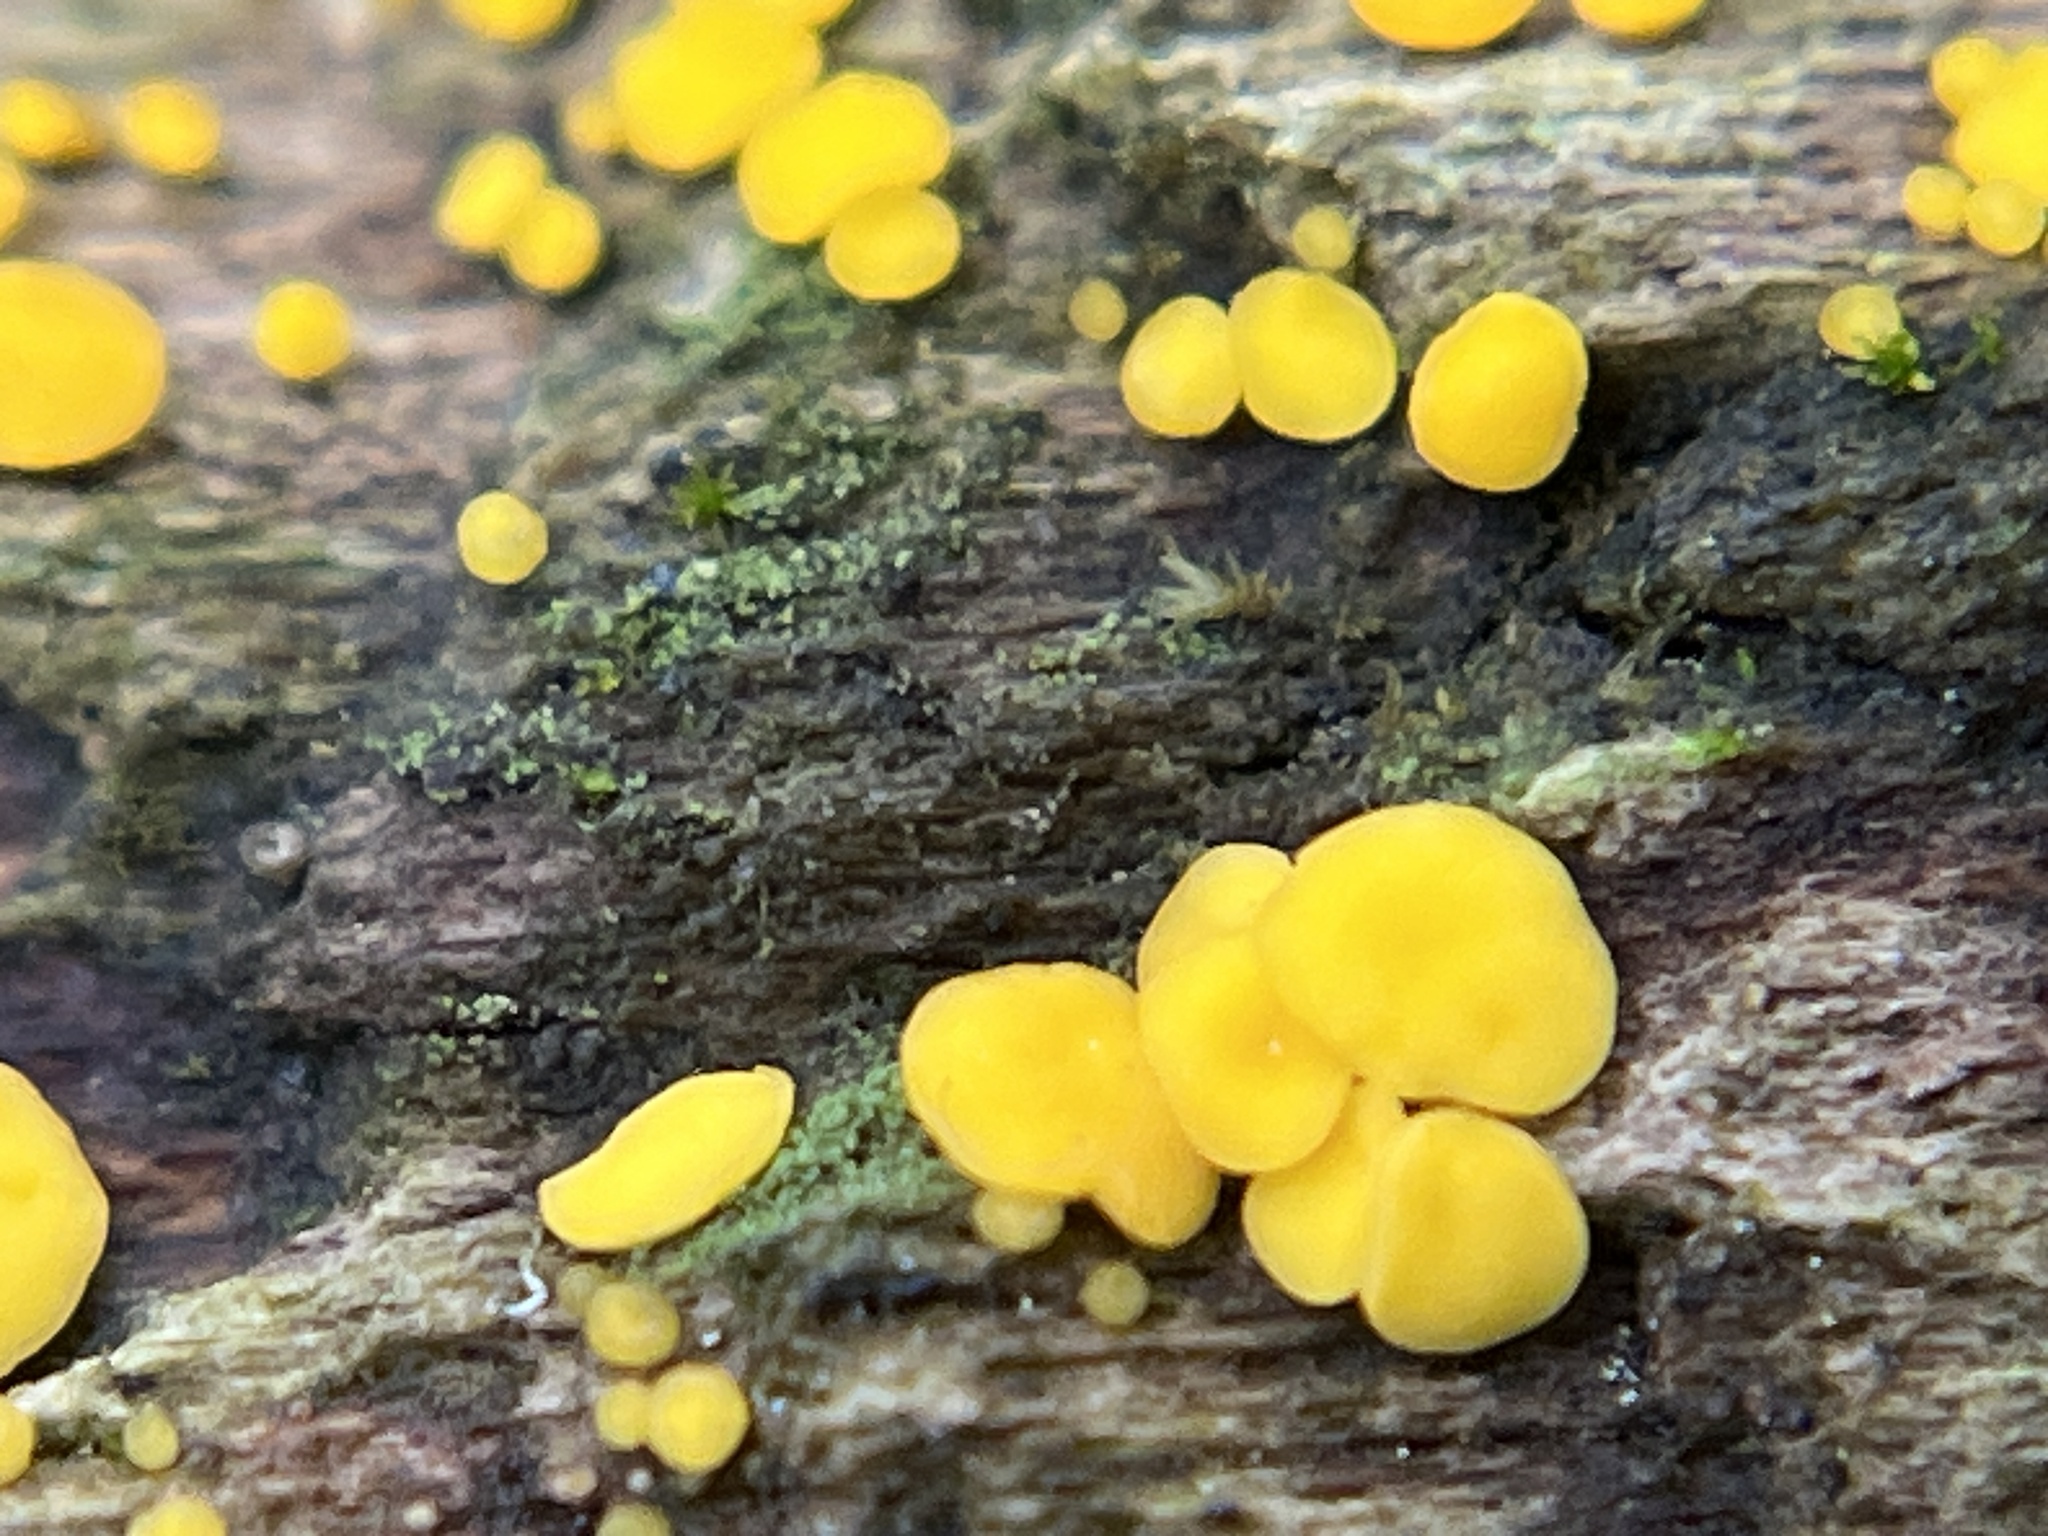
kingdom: Fungi
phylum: Ascomycota
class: Leotiomycetes
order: Helotiales
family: Pezizellaceae
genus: Calycina
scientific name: Calycina citrina
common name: Yellow fairy cups
